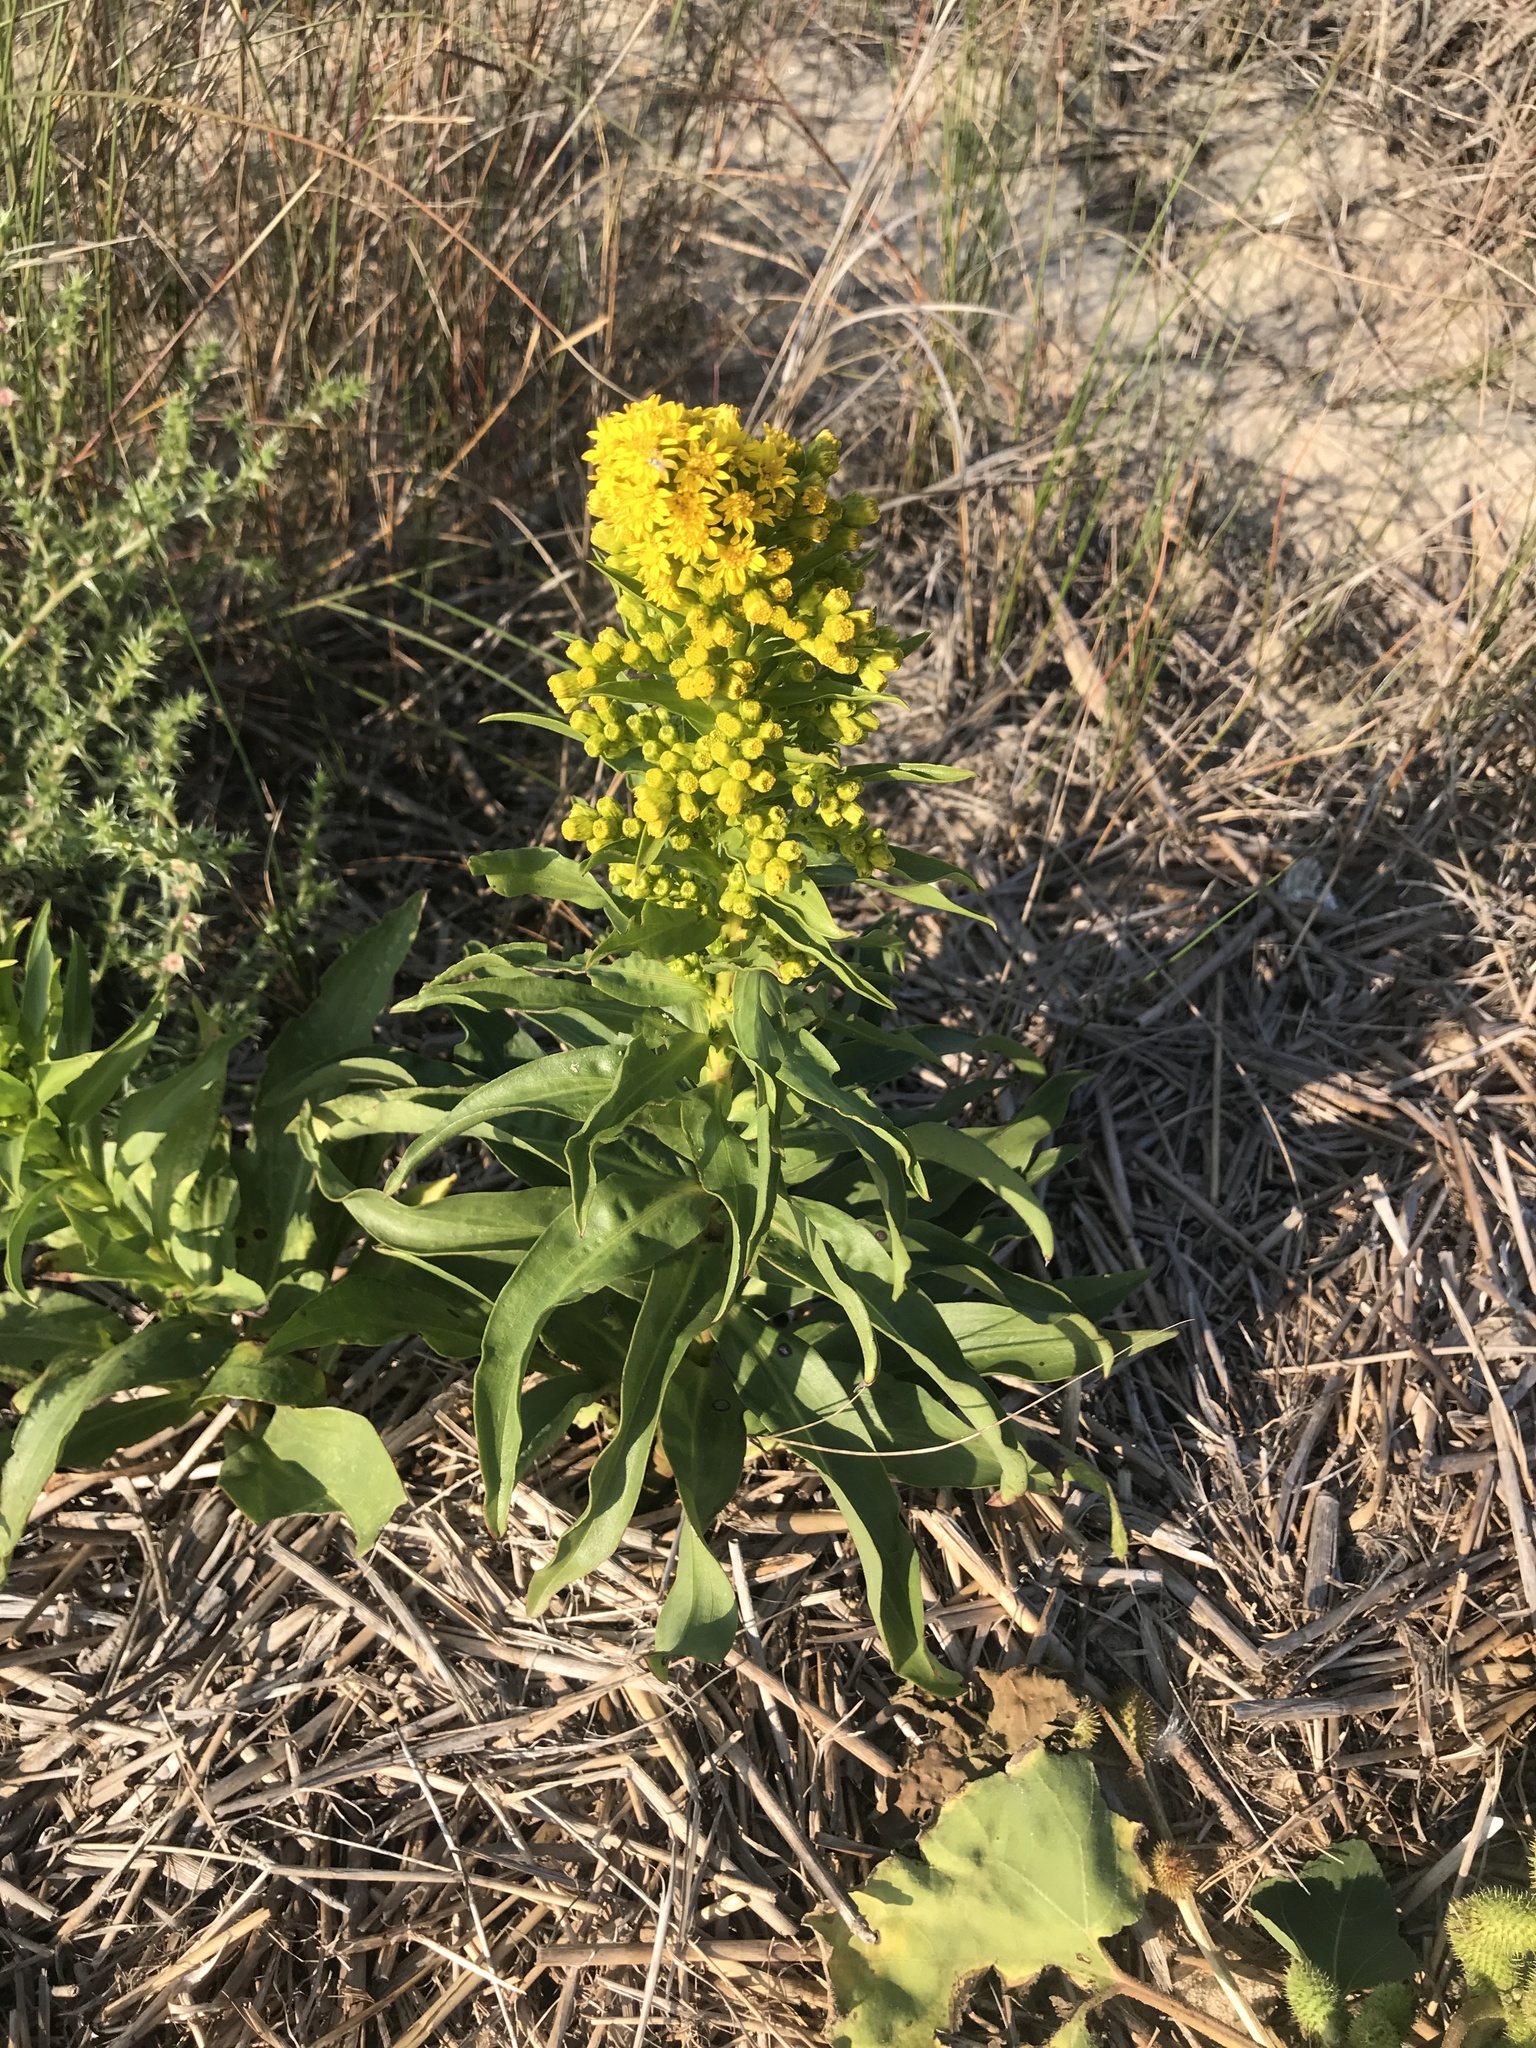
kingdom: Plantae
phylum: Tracheophyta
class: Magnoliopsida
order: Asterales
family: Asteraceae
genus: Solidago
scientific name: Solidago sempervirens
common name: Salt-marsh goldenrod
